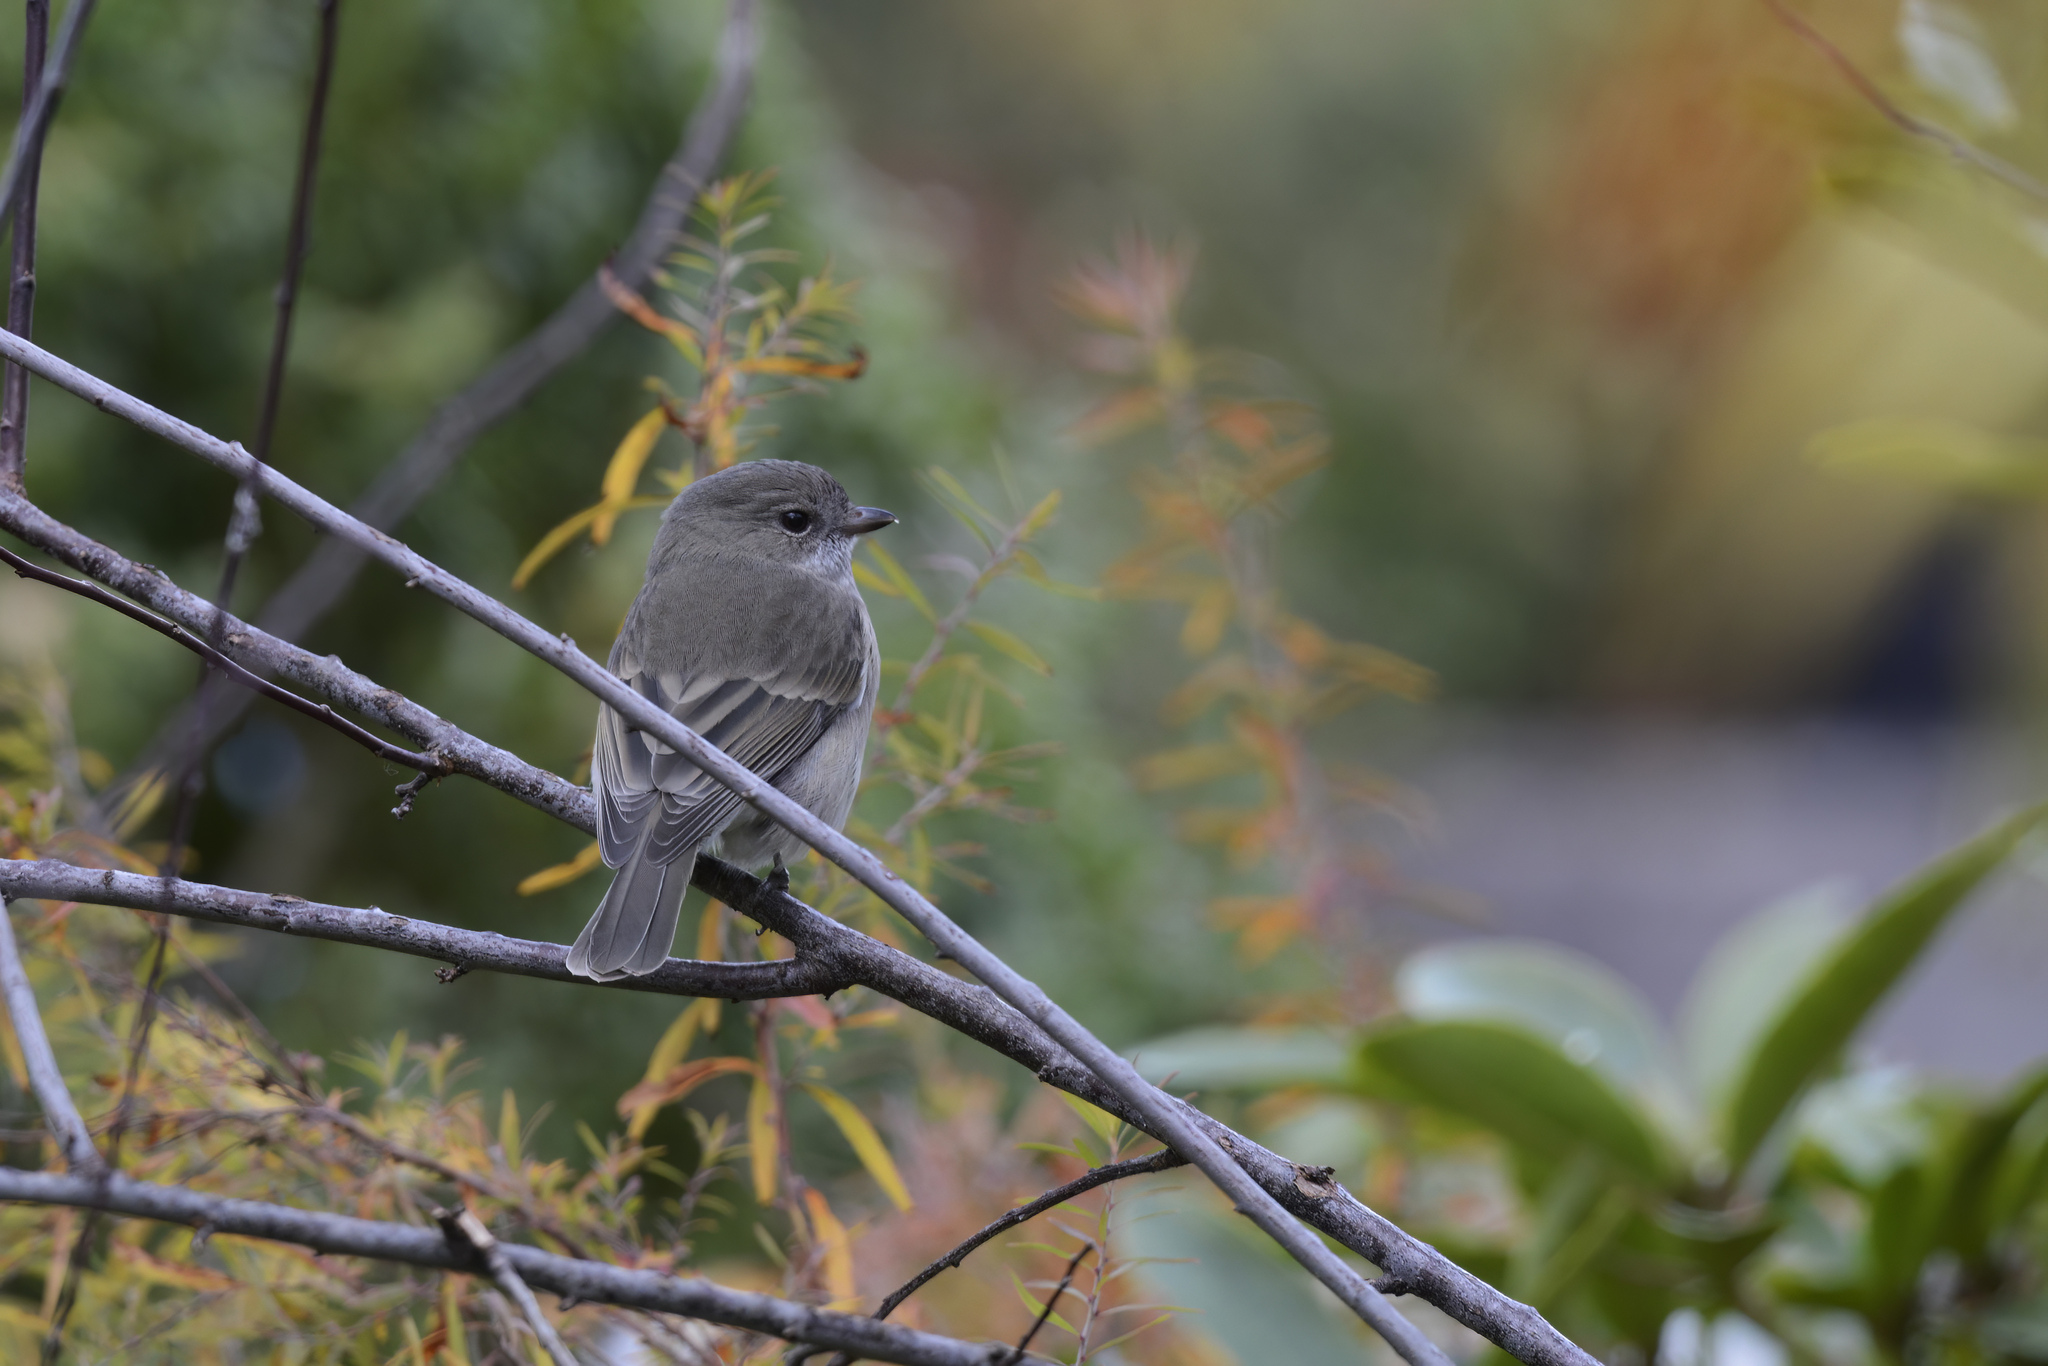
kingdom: Animalia
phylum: Chordata
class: Aves
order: Passeriformes
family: Pachycephalidae
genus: Pachycephala
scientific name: Pachycephala pectoralis
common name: Australian golden whistler
